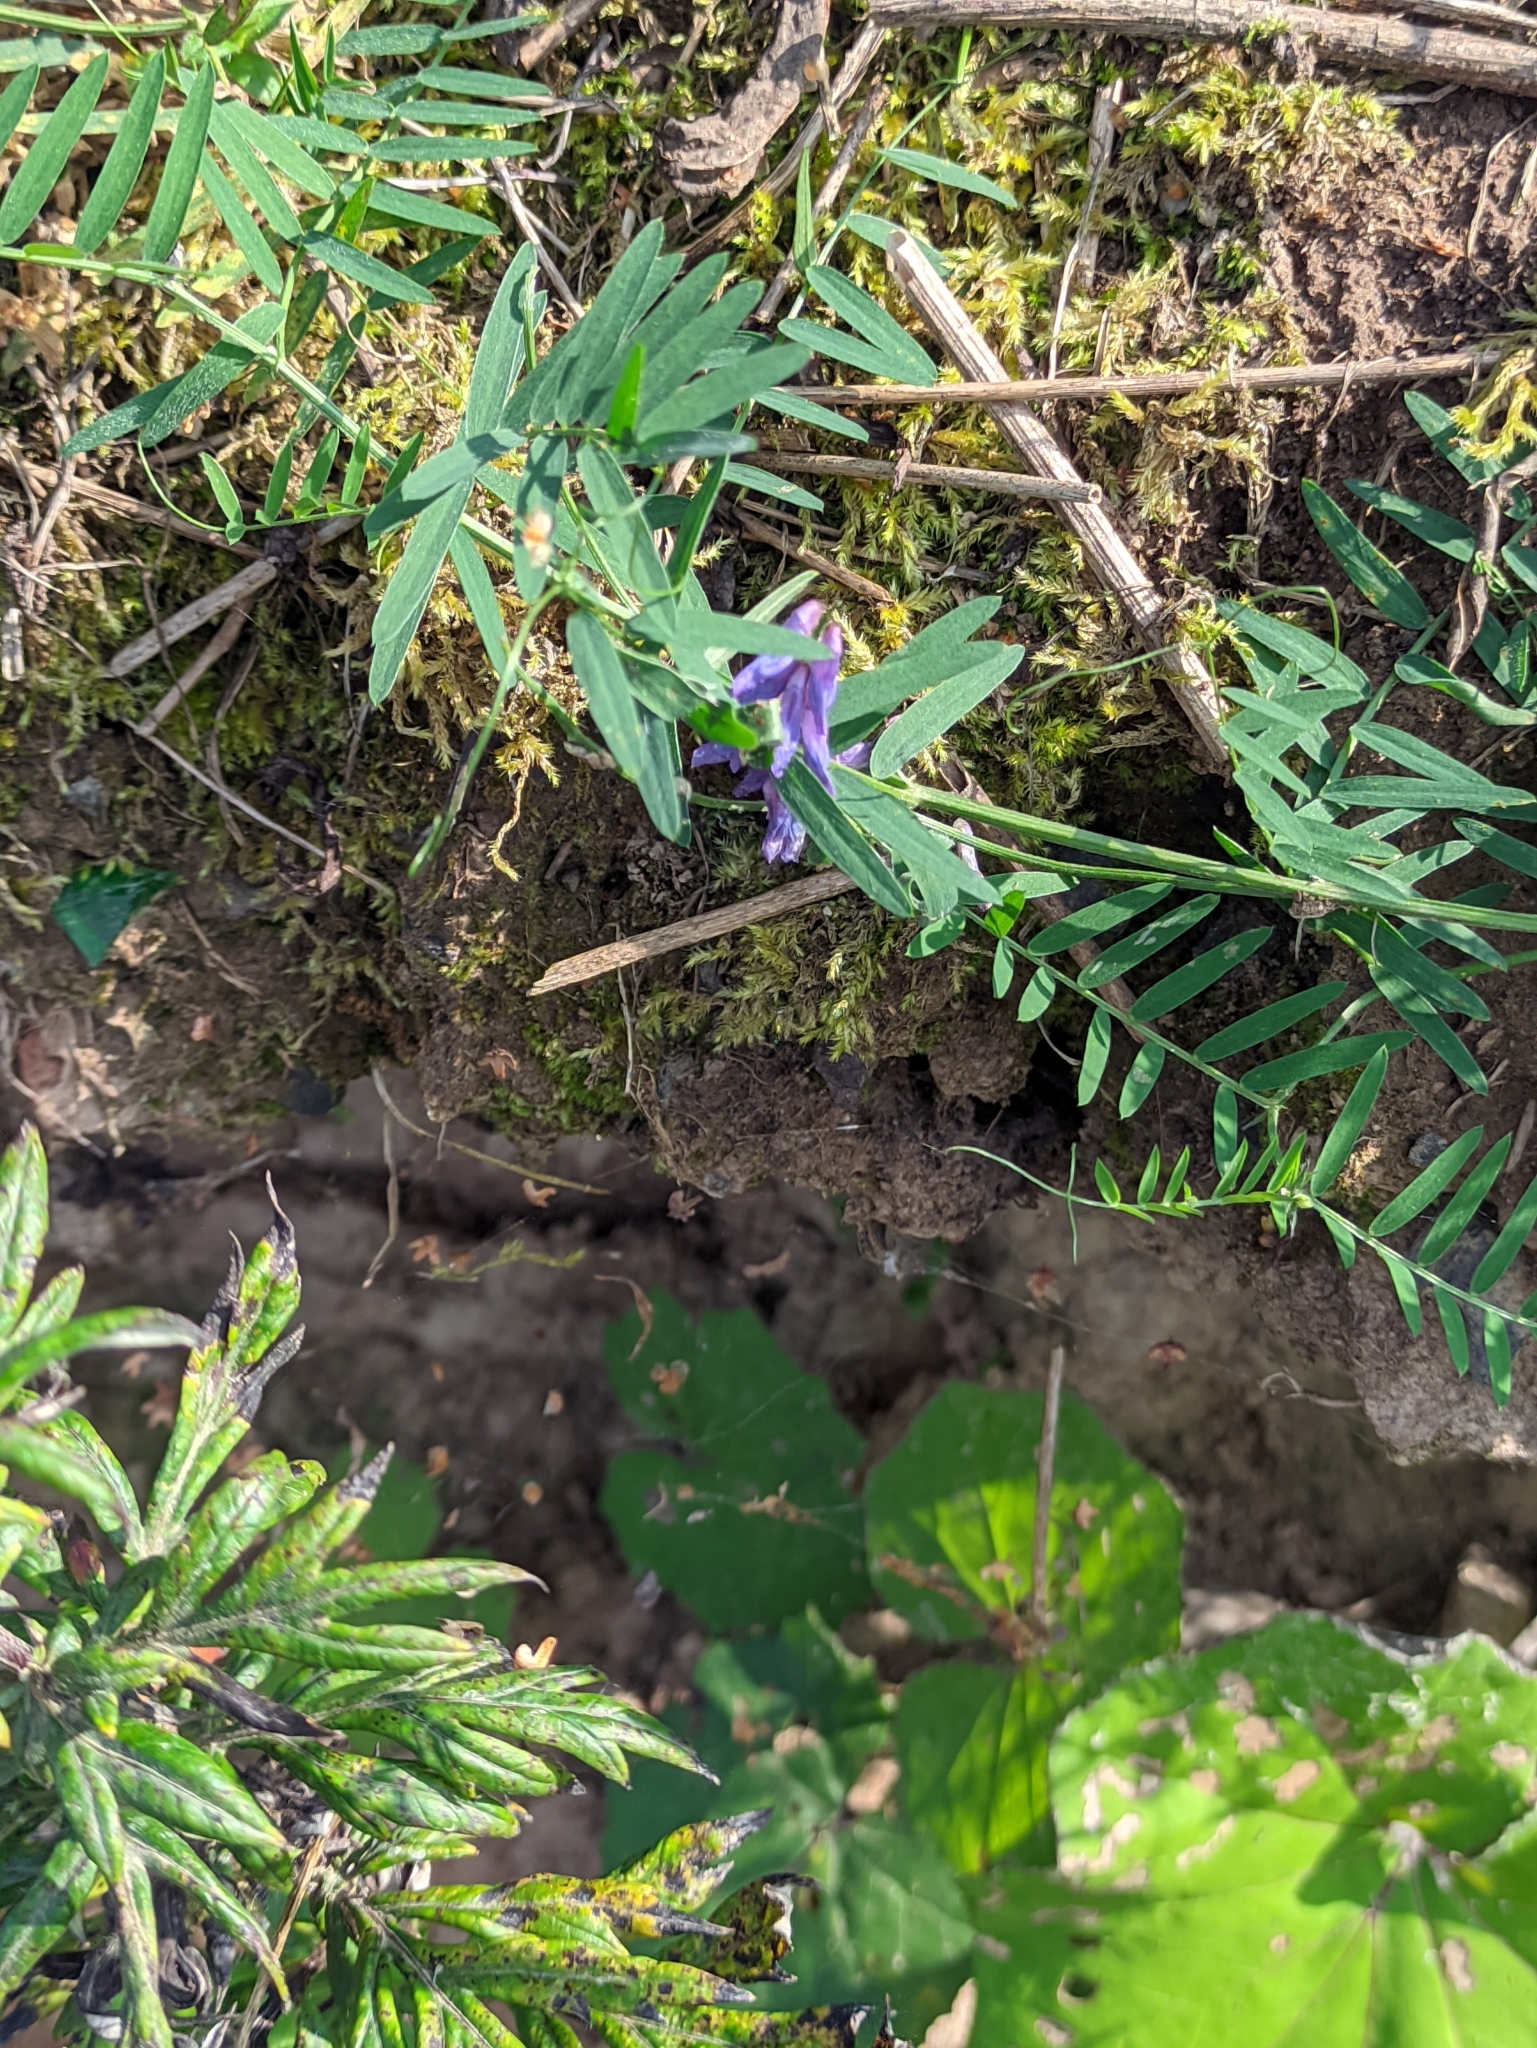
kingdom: Plantae
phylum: Tracheophyta
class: Magnoliopsida
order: Fabales
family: Fabaceae
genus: Vicia
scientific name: Vicia cracca
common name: Bird vetch
